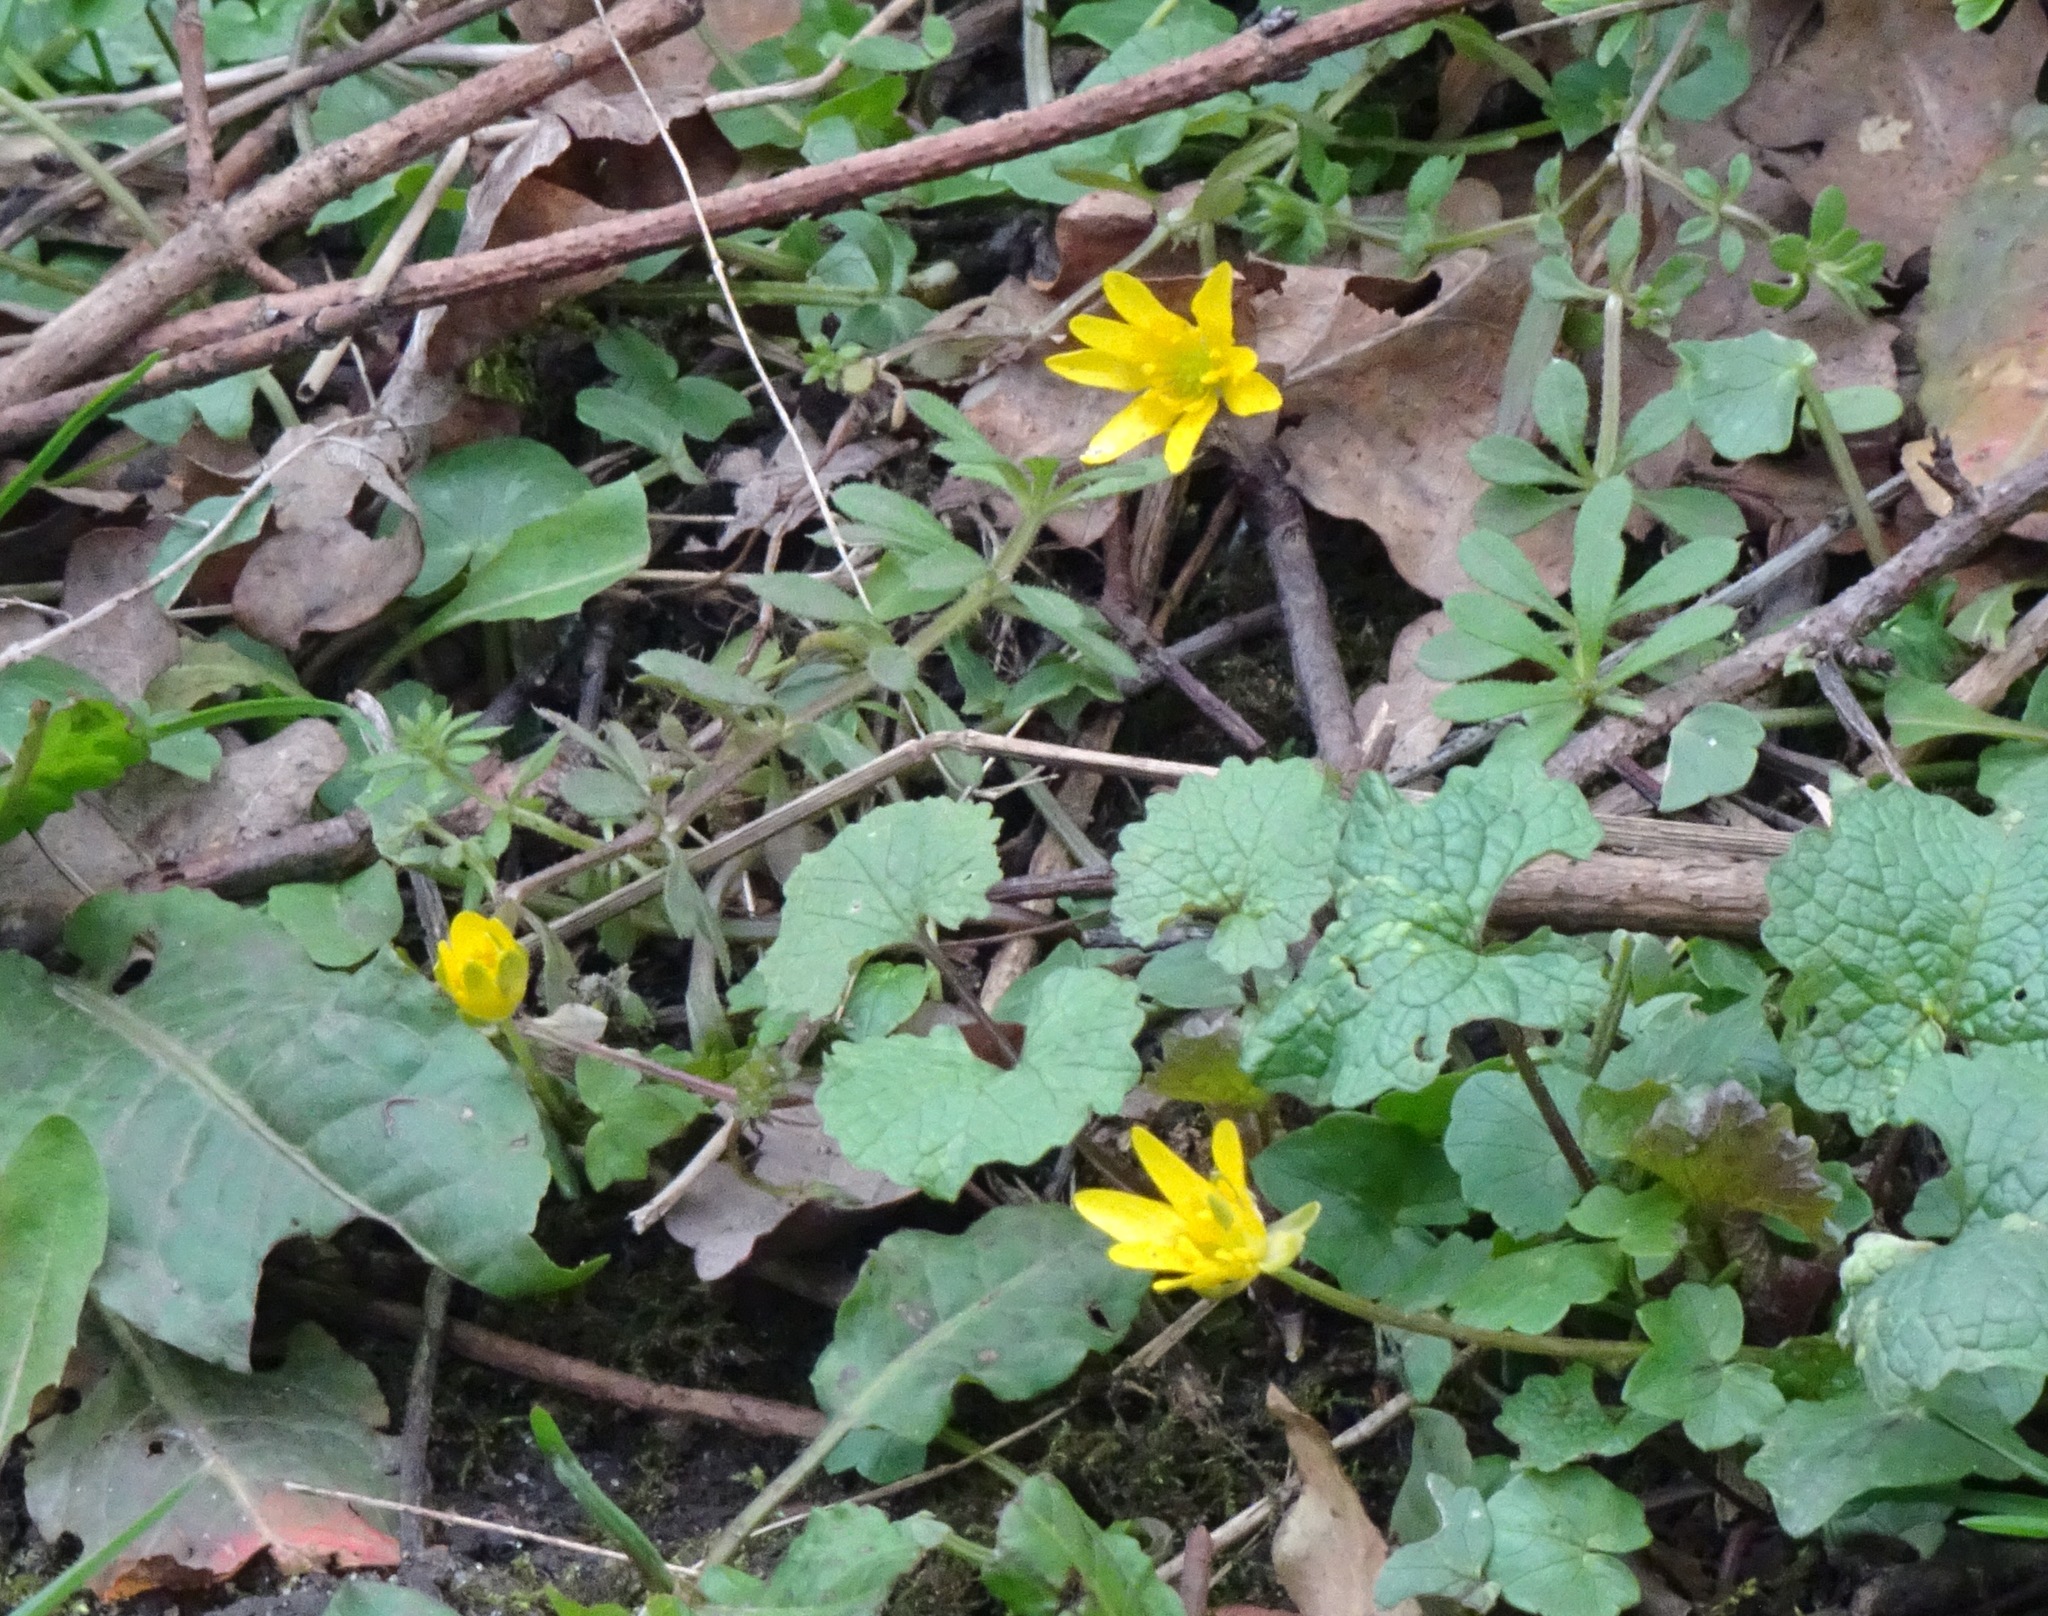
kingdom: Plantae
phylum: Tracheophyta
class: Magnoliopsida
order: Ranunculales
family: Ranunculaceae
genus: Ficaria
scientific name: Ficaria verna
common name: Lesser celandine
